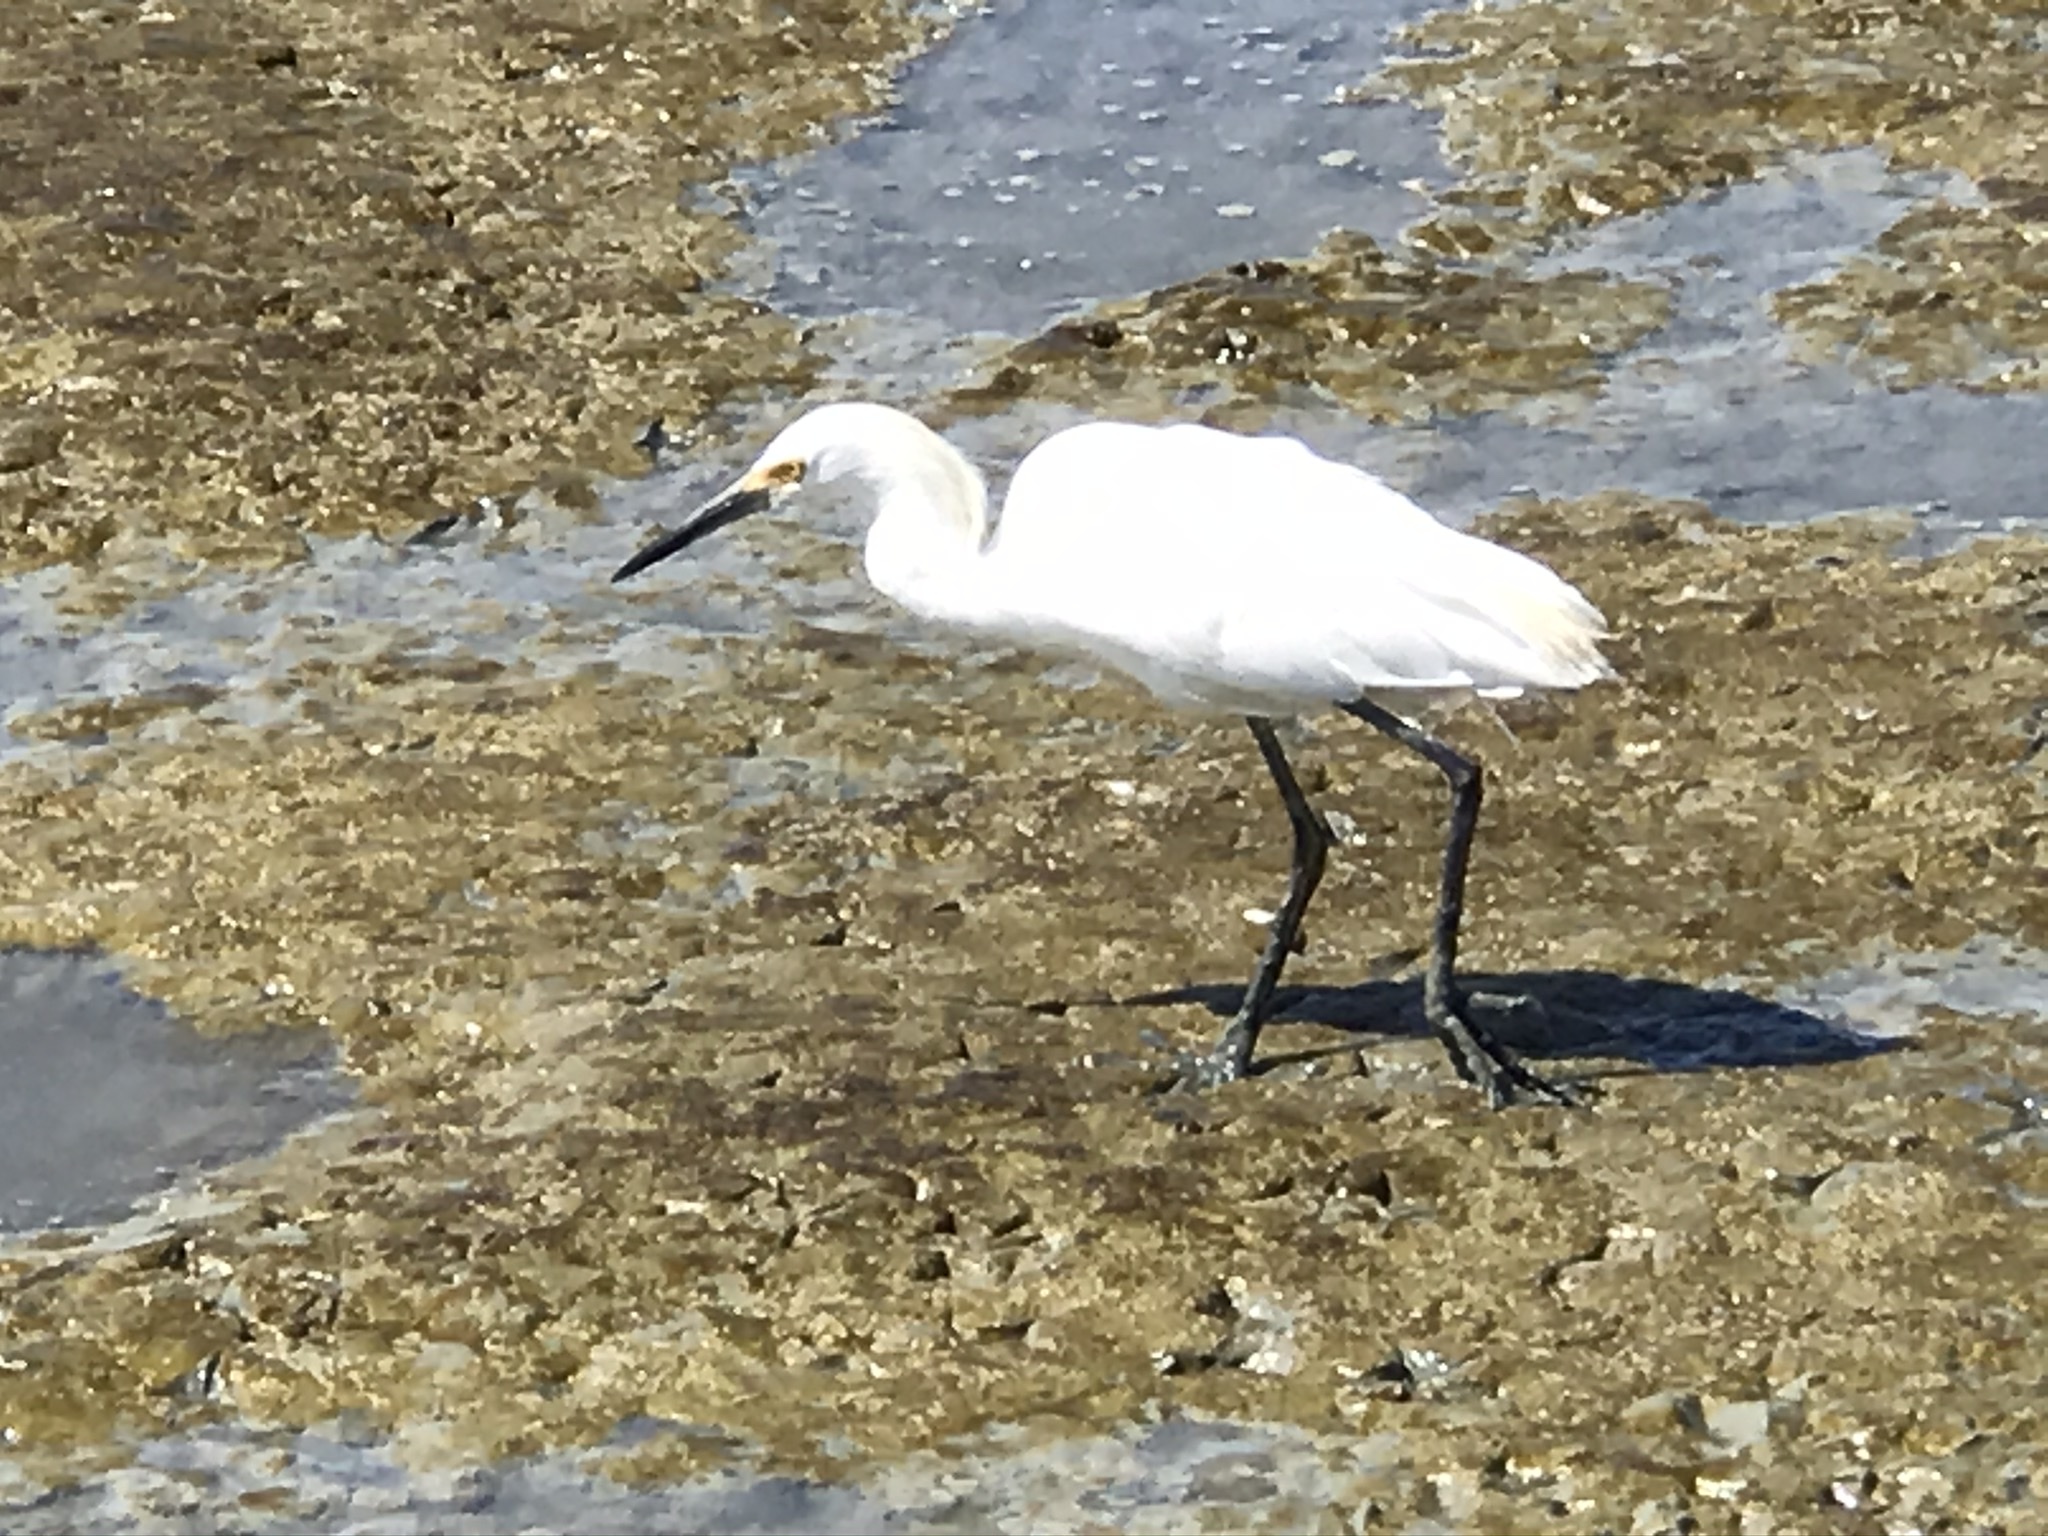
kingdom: Animalia
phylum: Chordata
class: Aves
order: Pelecaniformes
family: Ardeidae
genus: Egretta
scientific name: Egretta thula
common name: Snowy egret
